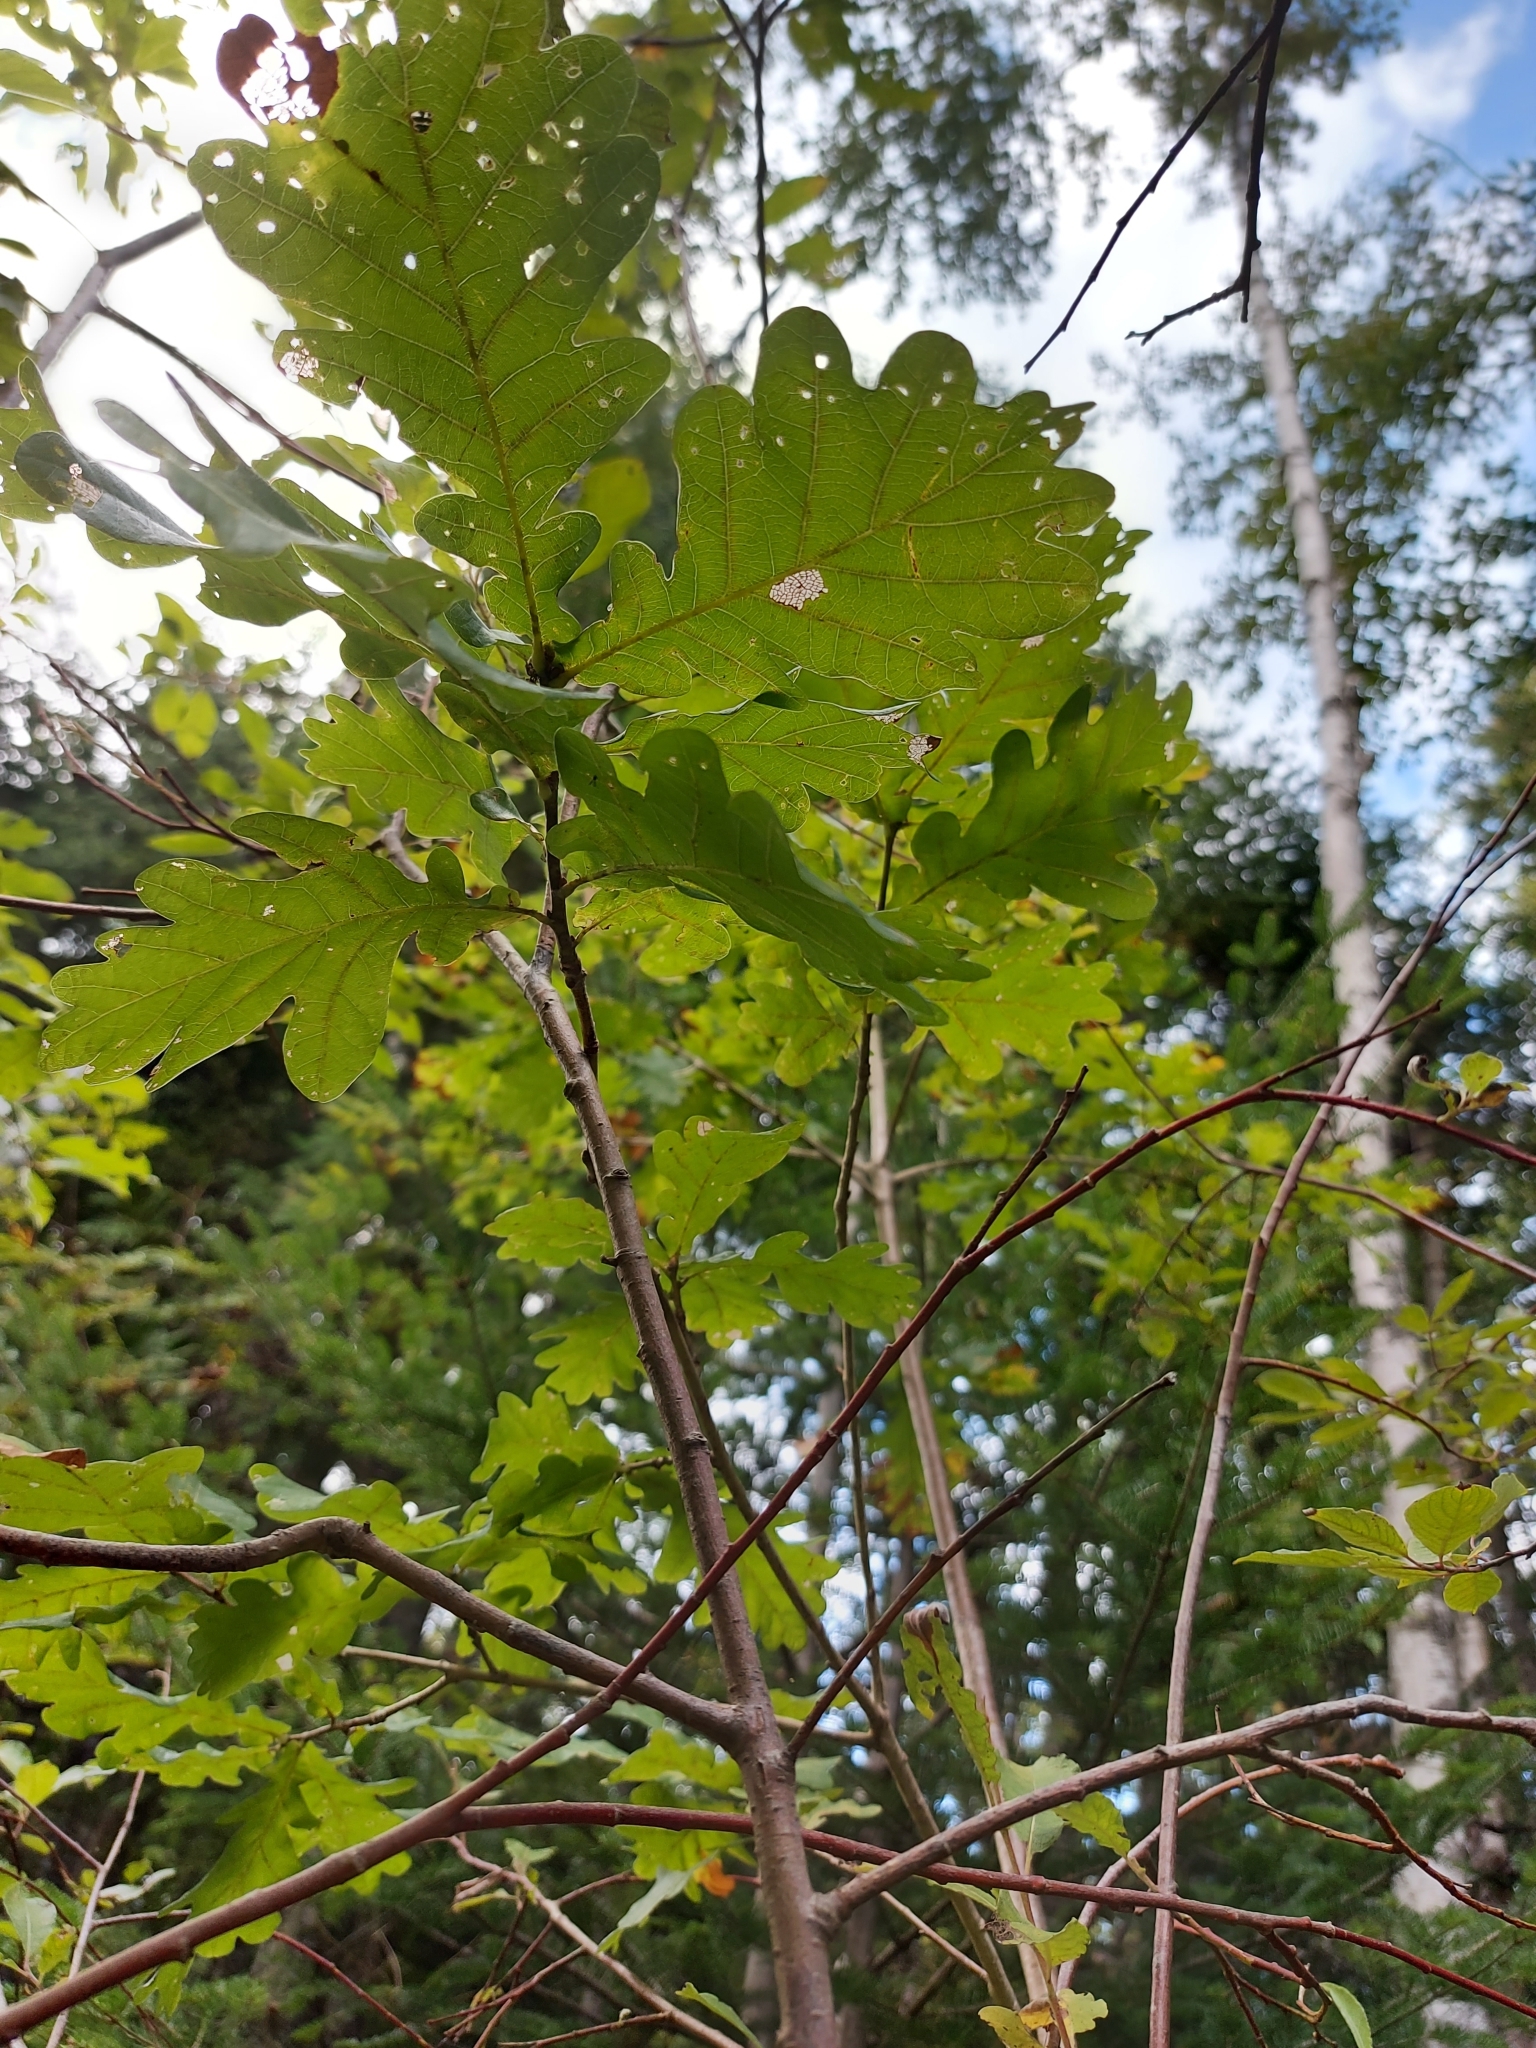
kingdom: Plantae
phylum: Tracheophyta
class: Magnoliopsida
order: Fagales
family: Fagaceae
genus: Quercus
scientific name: Quercus robur
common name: Pedunculate oak
